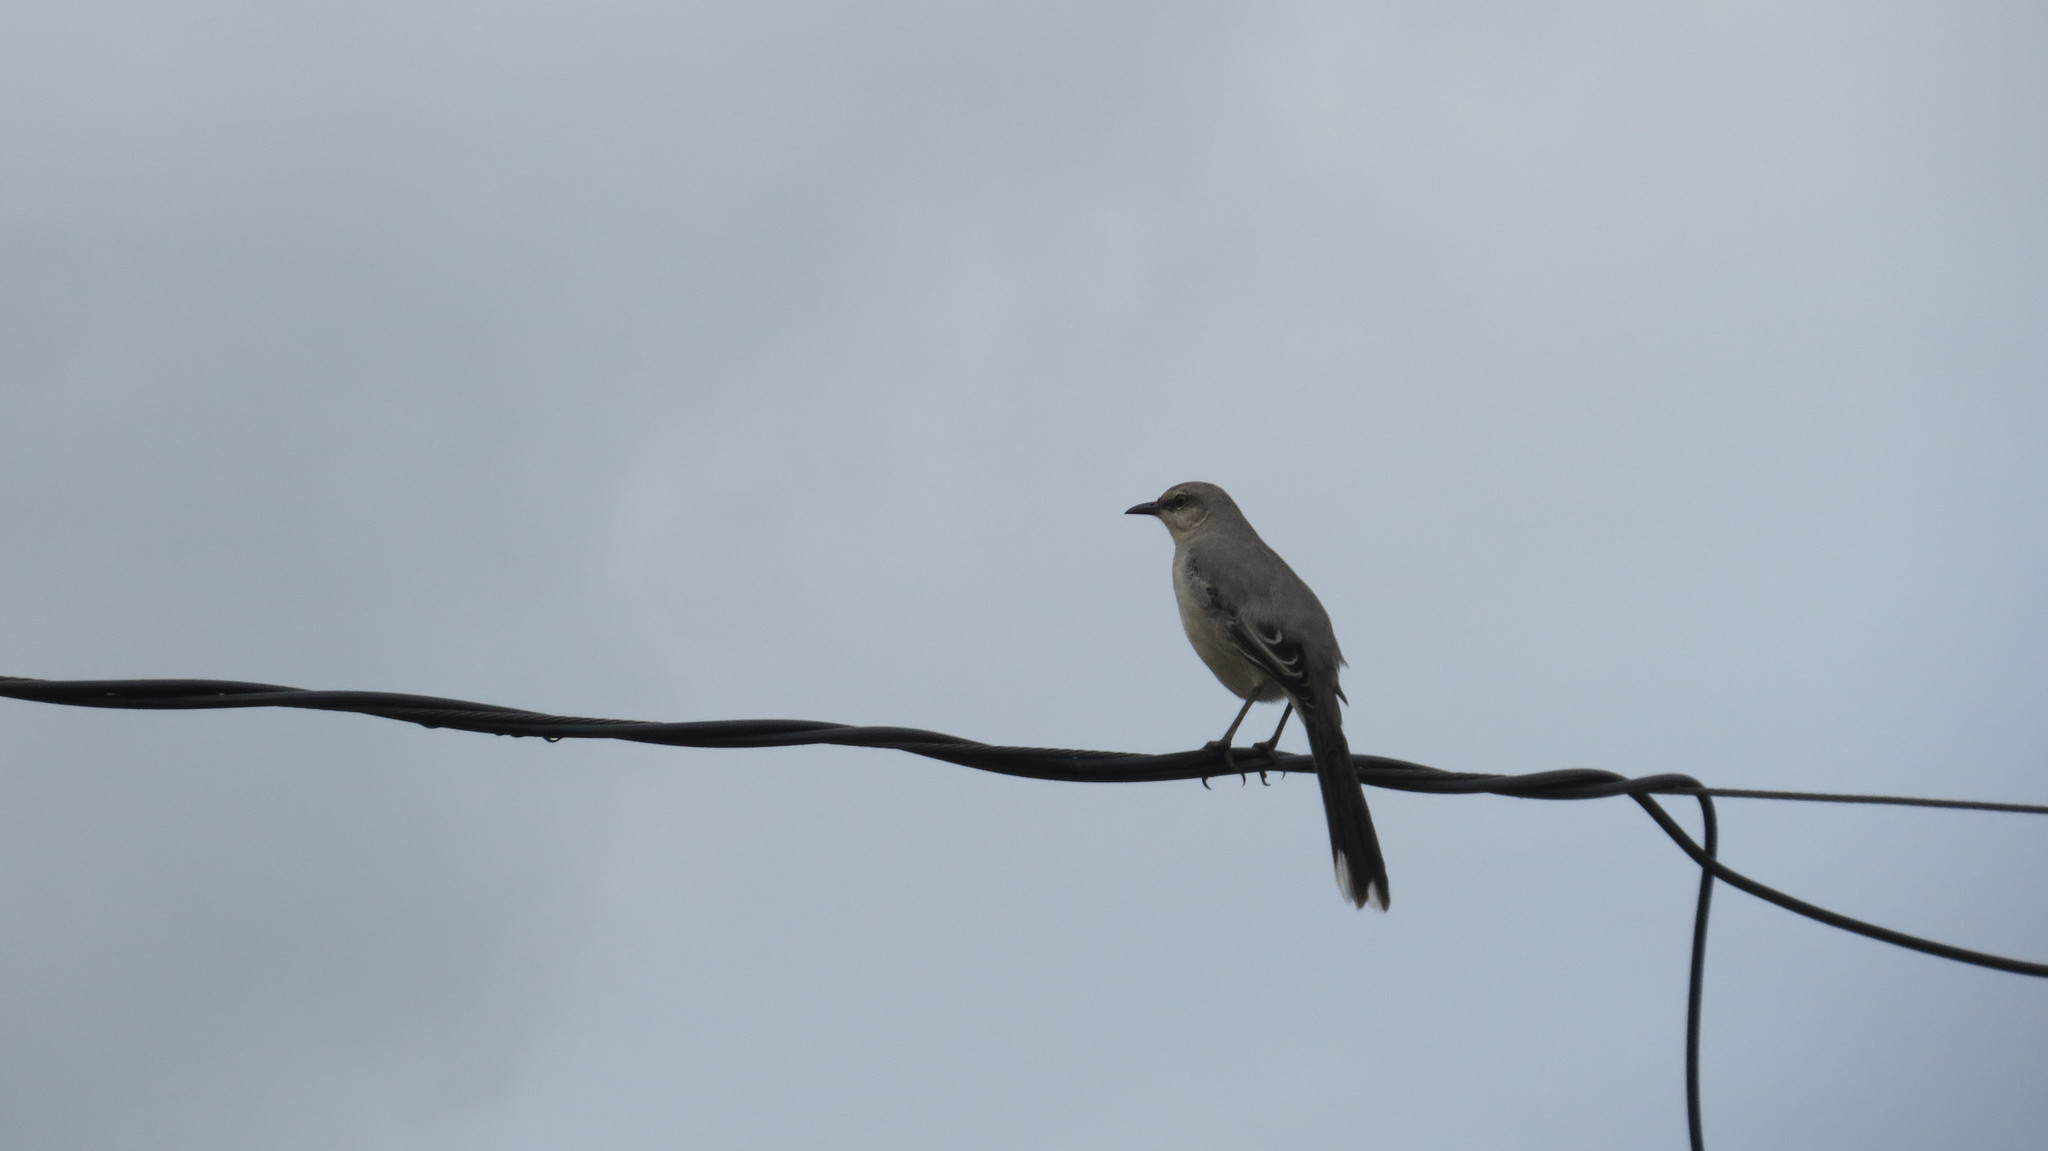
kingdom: Animalia
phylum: Chordata
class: Aves
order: Passeriformes
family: Mimidae
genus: Mimus
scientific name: Mimus gilvus
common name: Tropical mockingbird
